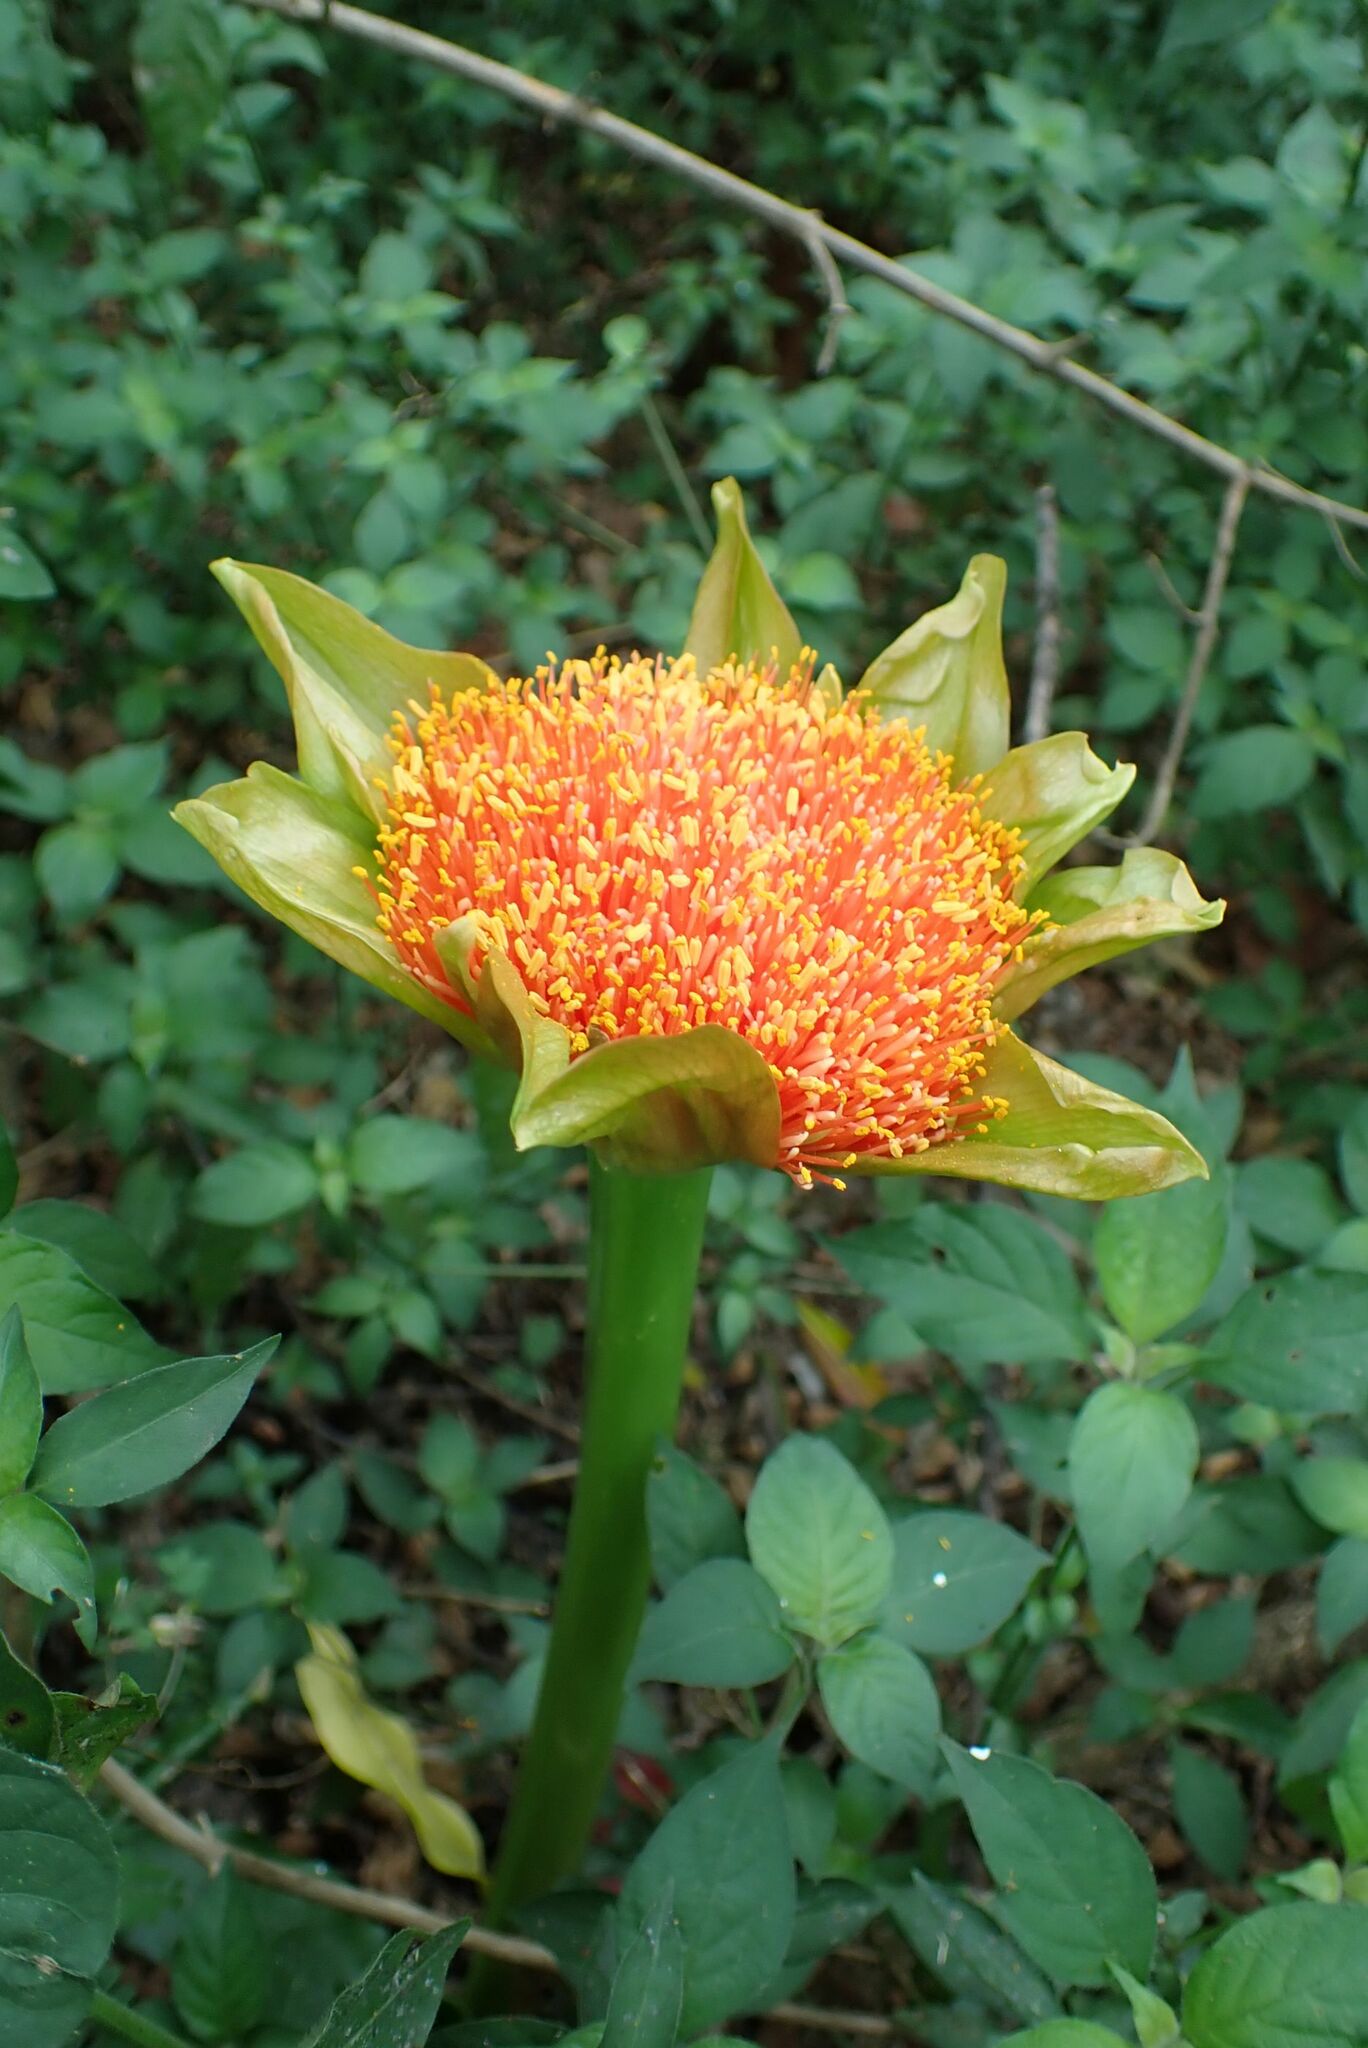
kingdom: Plantae
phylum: Tracheophyta
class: Liliopsida
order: Asparagales
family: Amaryllidaceae
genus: Scadoxus
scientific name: Scadoxus puniceus
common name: Royal-paintbrush
